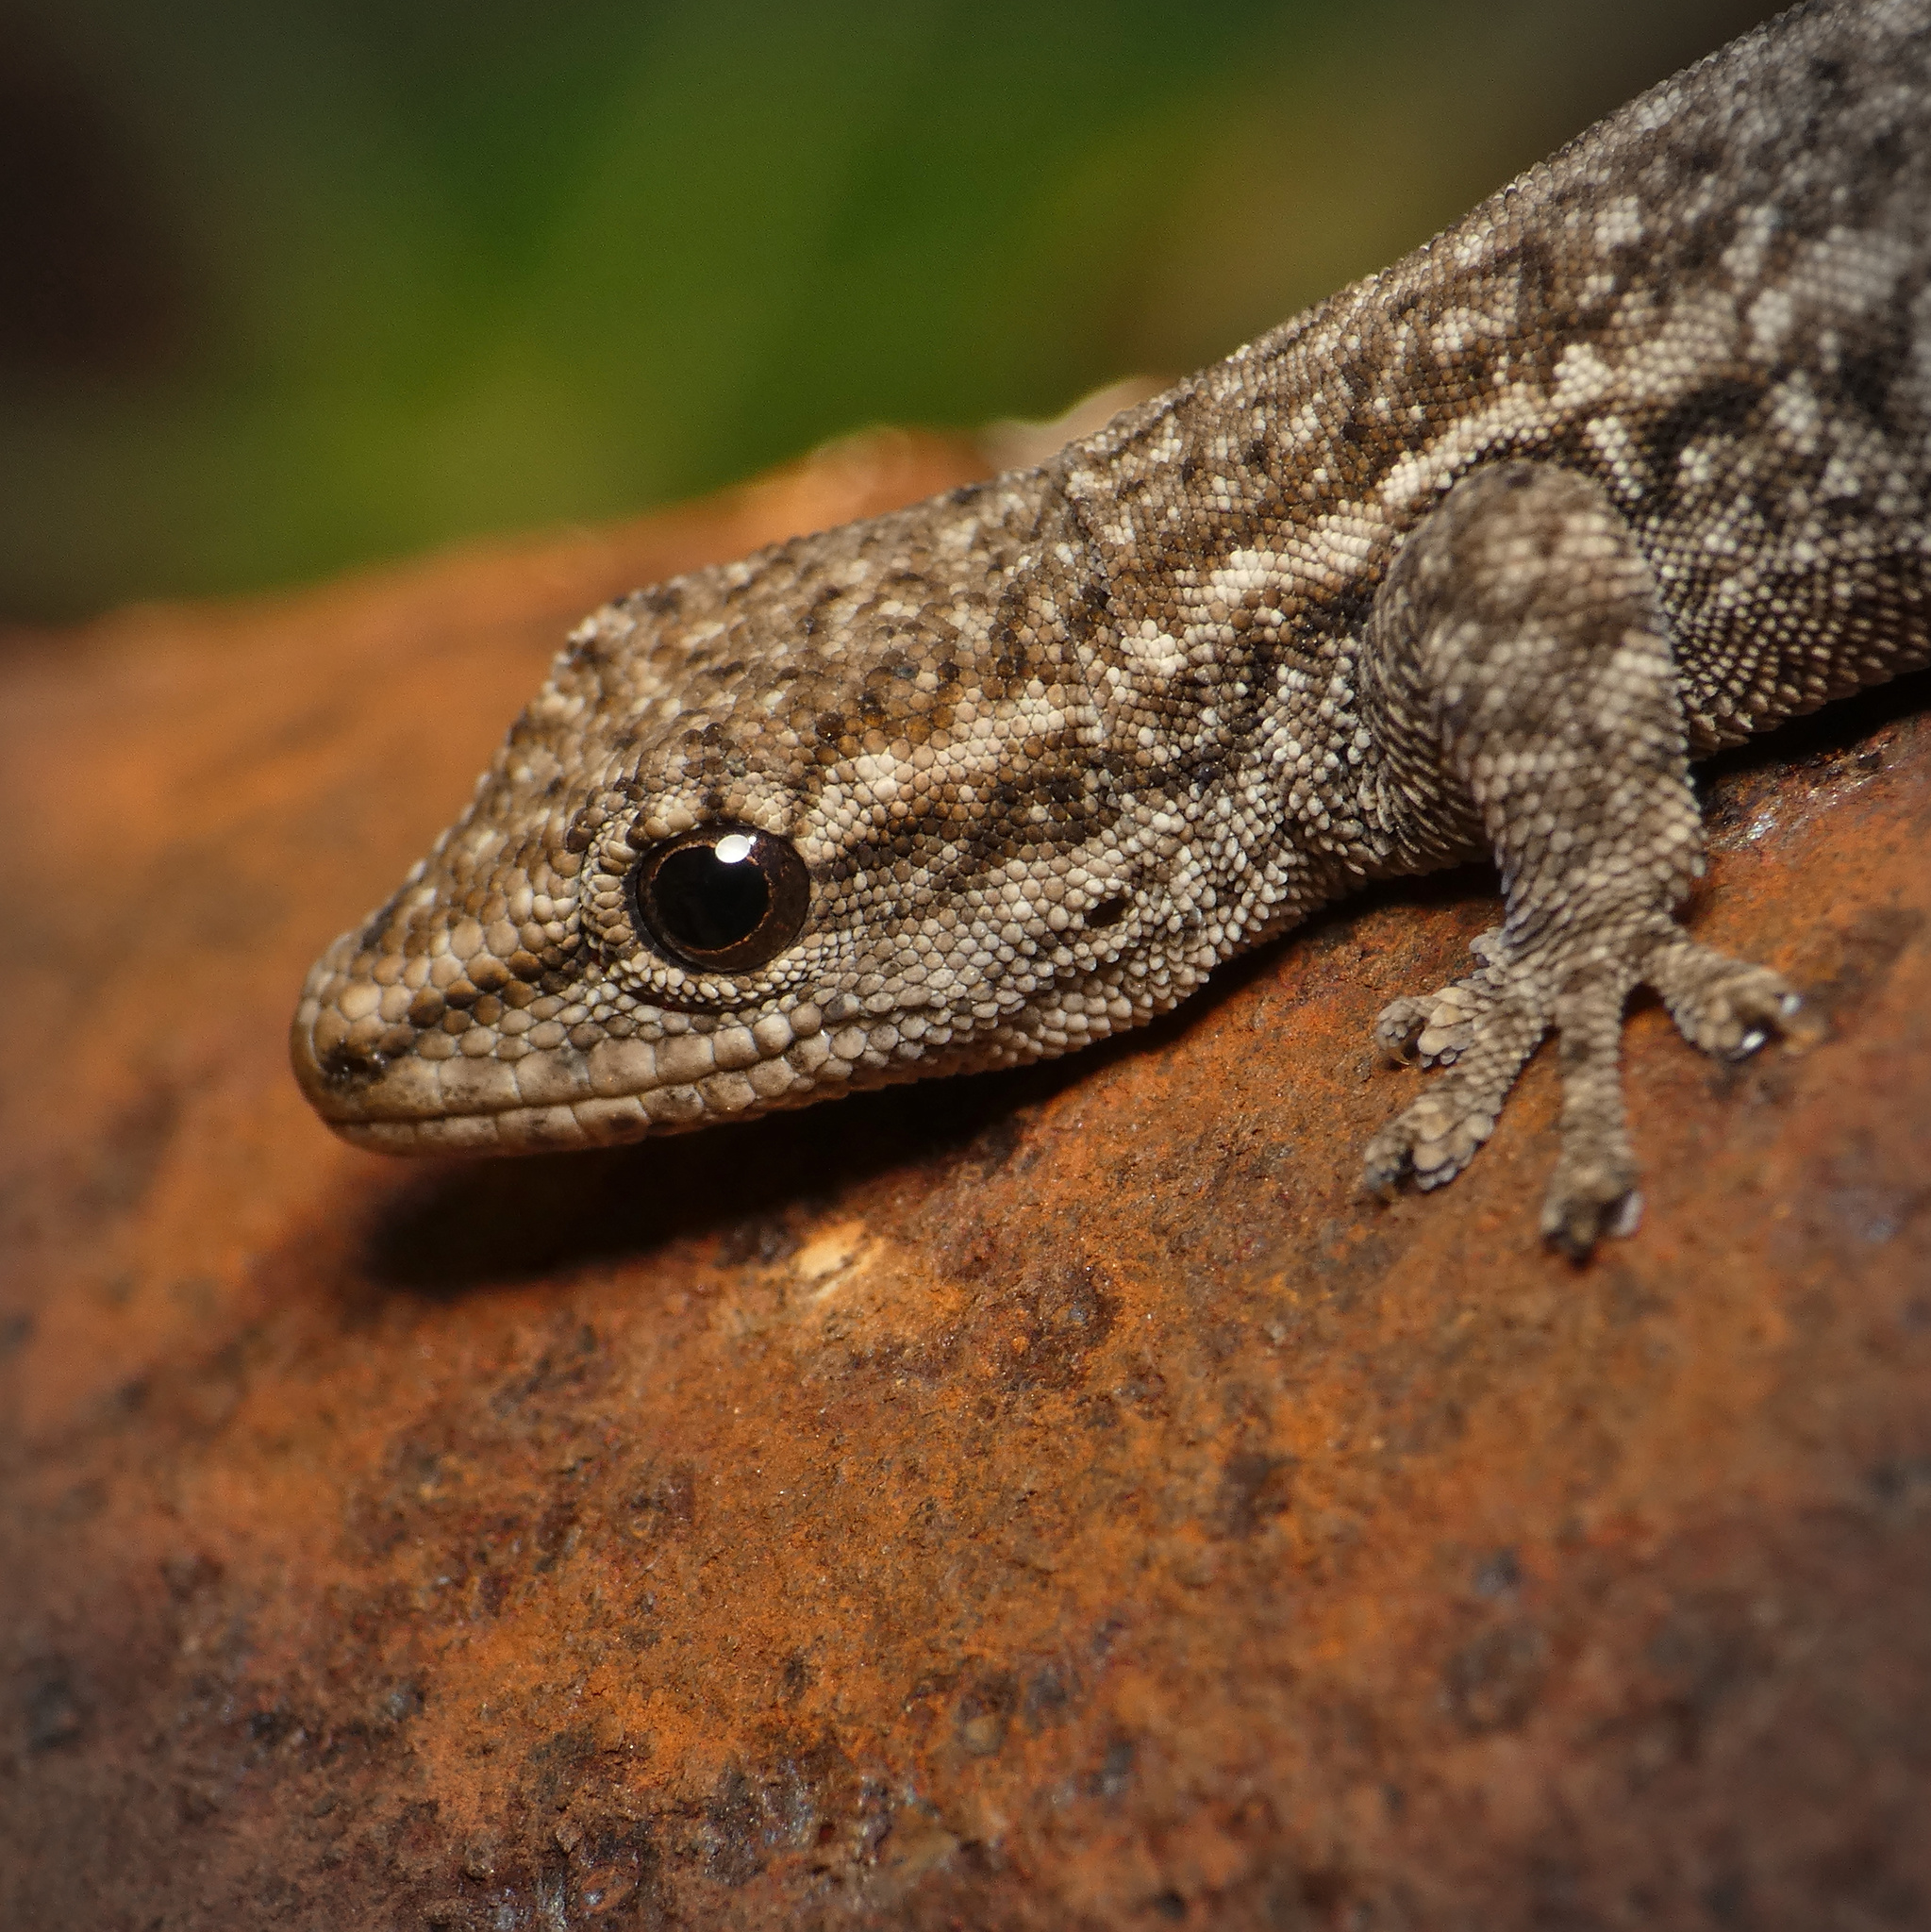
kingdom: Animalia
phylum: Chordata
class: Squamata
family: Gekkonidae
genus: Lygodactylus
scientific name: Lygodactylus capensis
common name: Cape dwarf gecko
